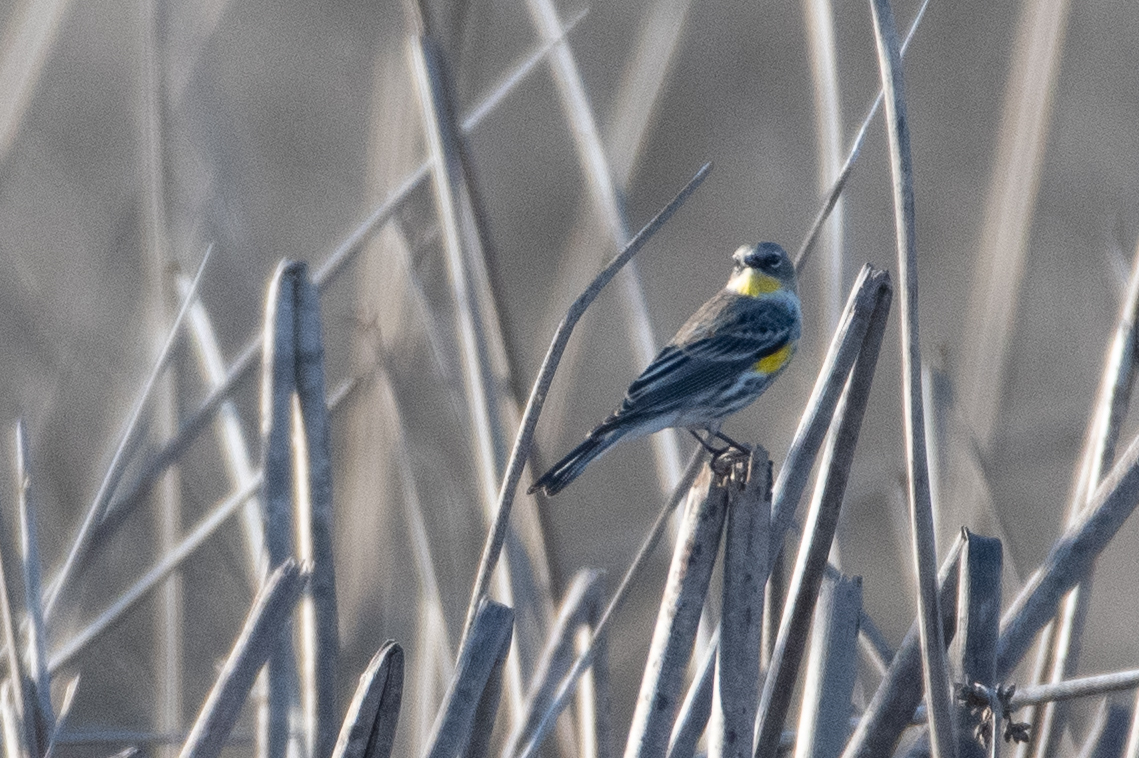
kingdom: Animalia
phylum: Chordata
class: Aves
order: Passeriformes
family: Parulidae
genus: Setophaga
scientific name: Setophaga coronata
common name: Myrtle warbler
